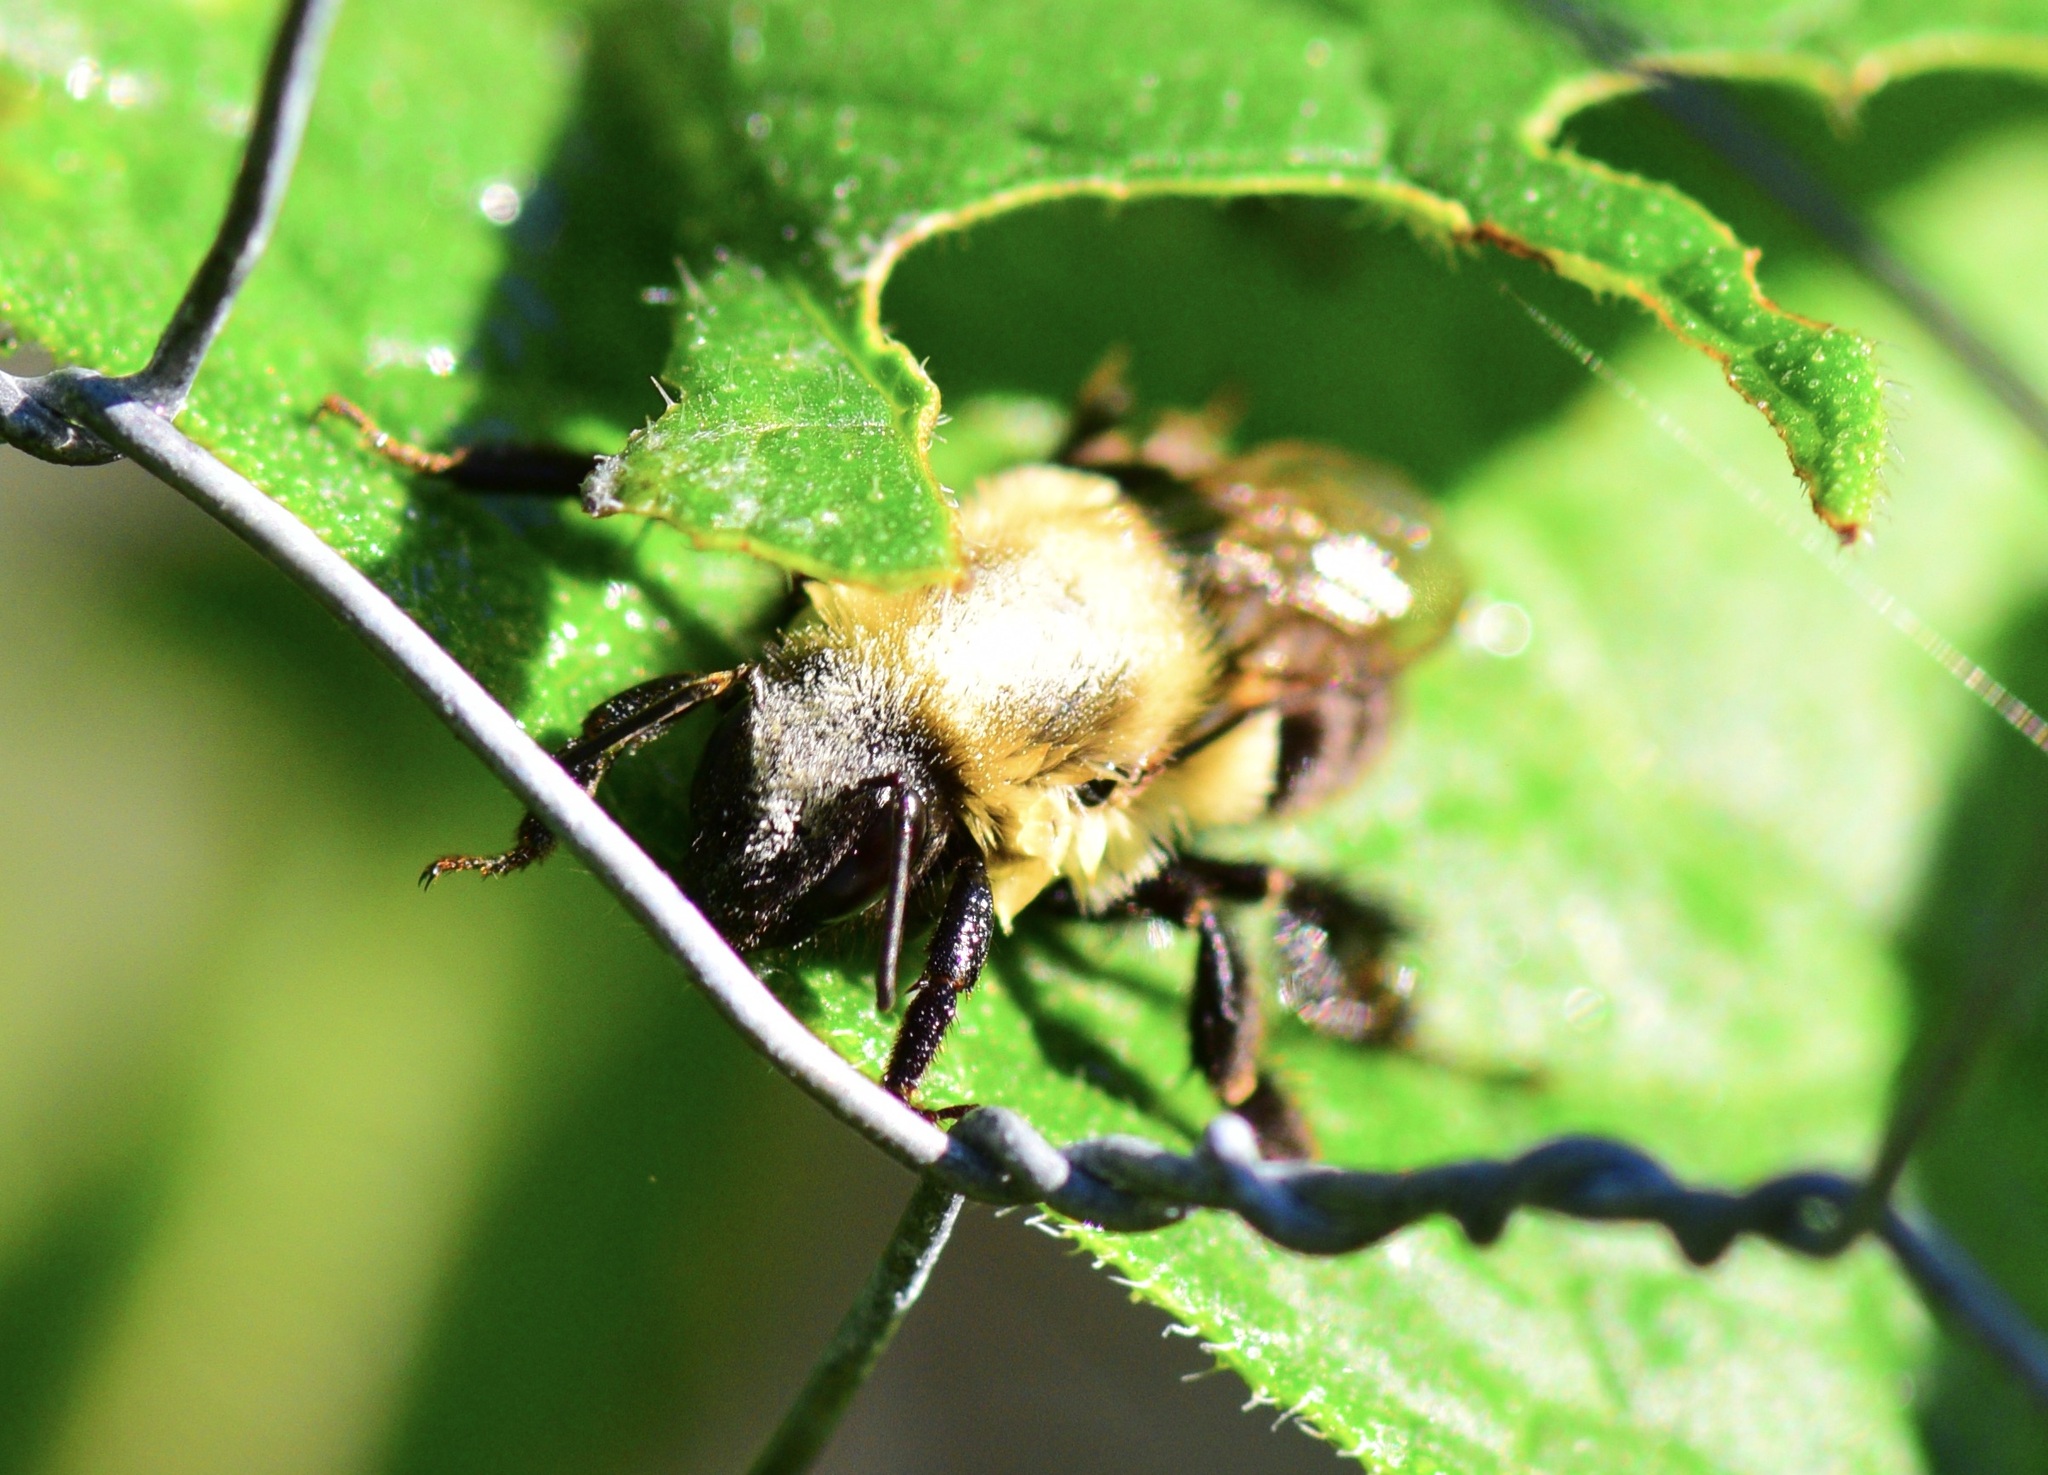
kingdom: Animalia
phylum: Arthropoda
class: Insecta
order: Hymenoptera
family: Apidae
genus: Bombus
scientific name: Bombus impatiens
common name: Common eastern bumble bee
